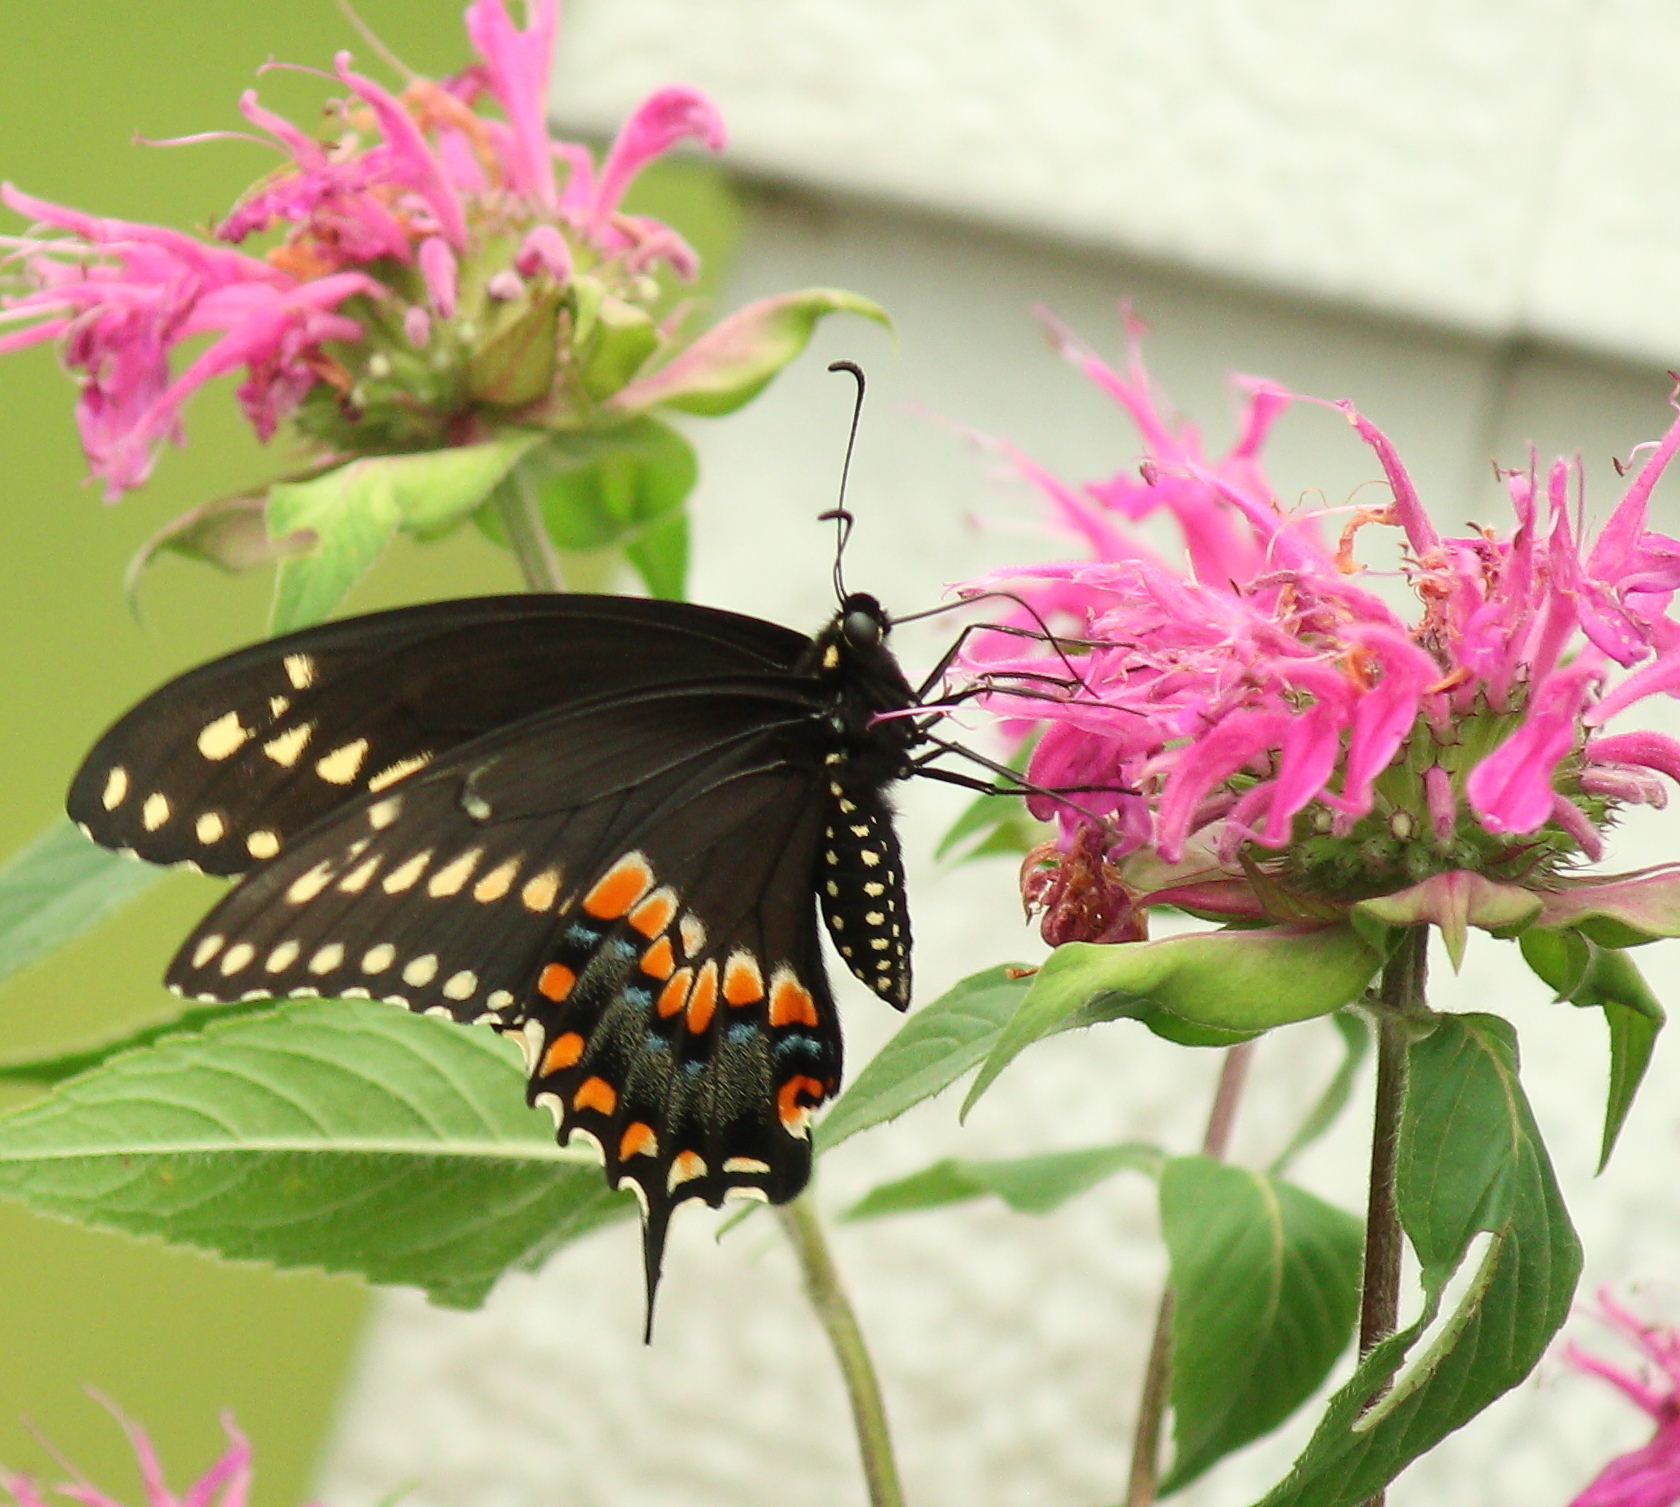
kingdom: Animalia
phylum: Arthropoda
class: Insecta
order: Lepidoptera
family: Papilionidae
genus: Papilio
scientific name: Papilio polyxenes
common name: Black swallowtail
